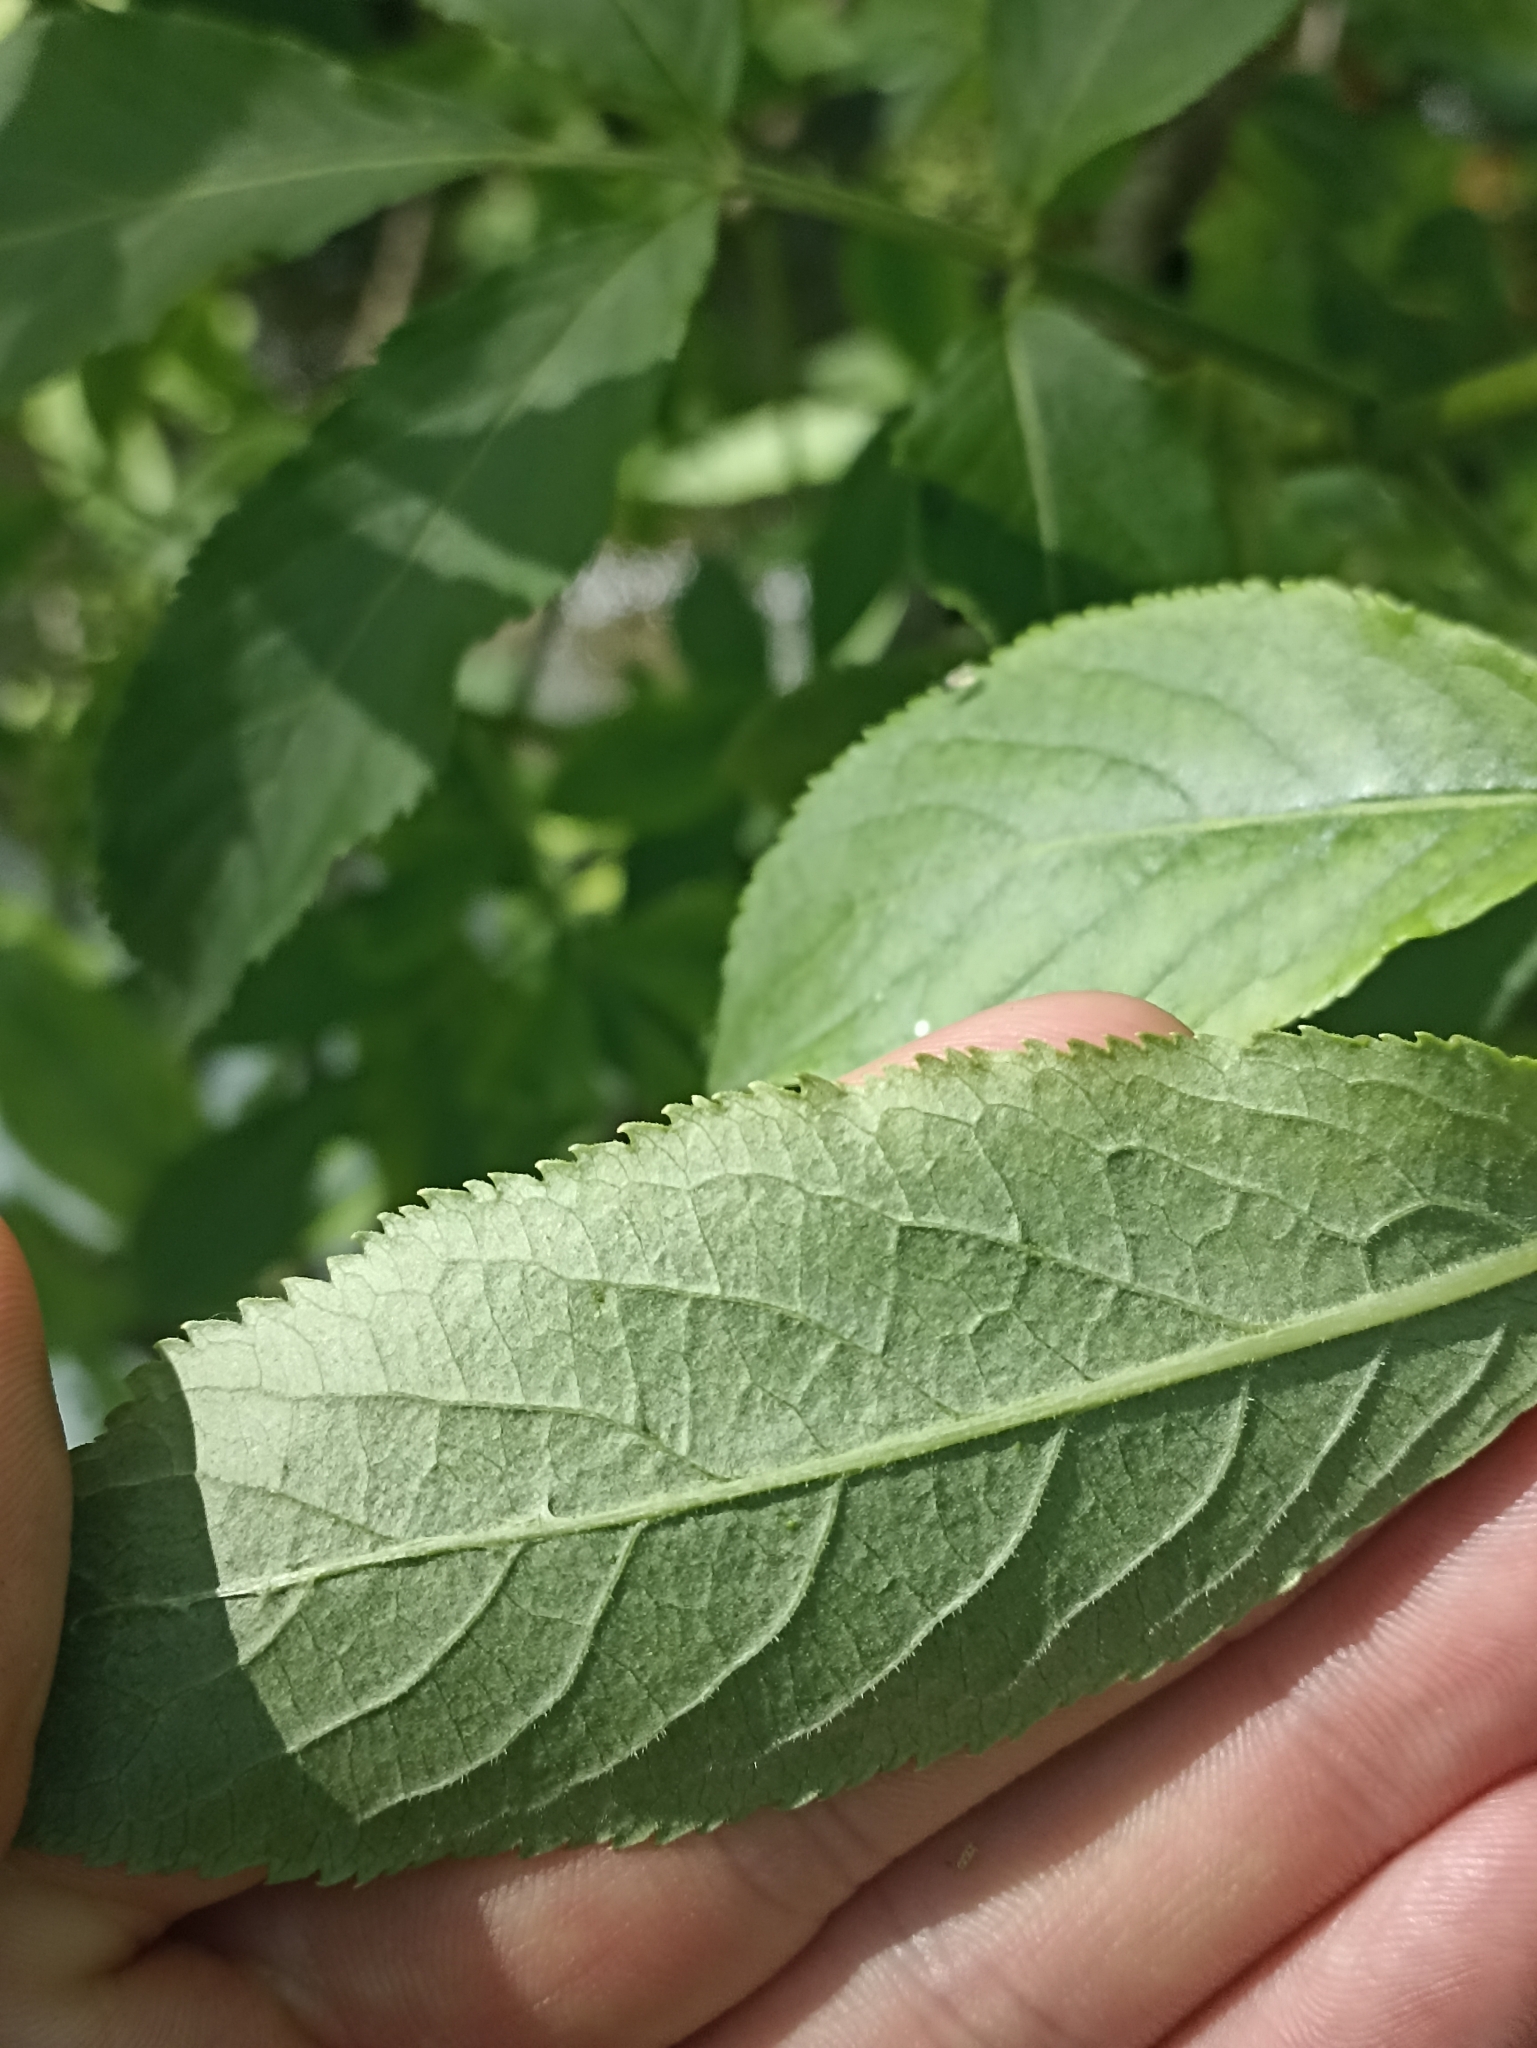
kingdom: Plantae
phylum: Tracheophyta
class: Magnoliopsida
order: Dipsacales
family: Viburnaceae
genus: Sambucus
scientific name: Sambucus nigra
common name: Elder
